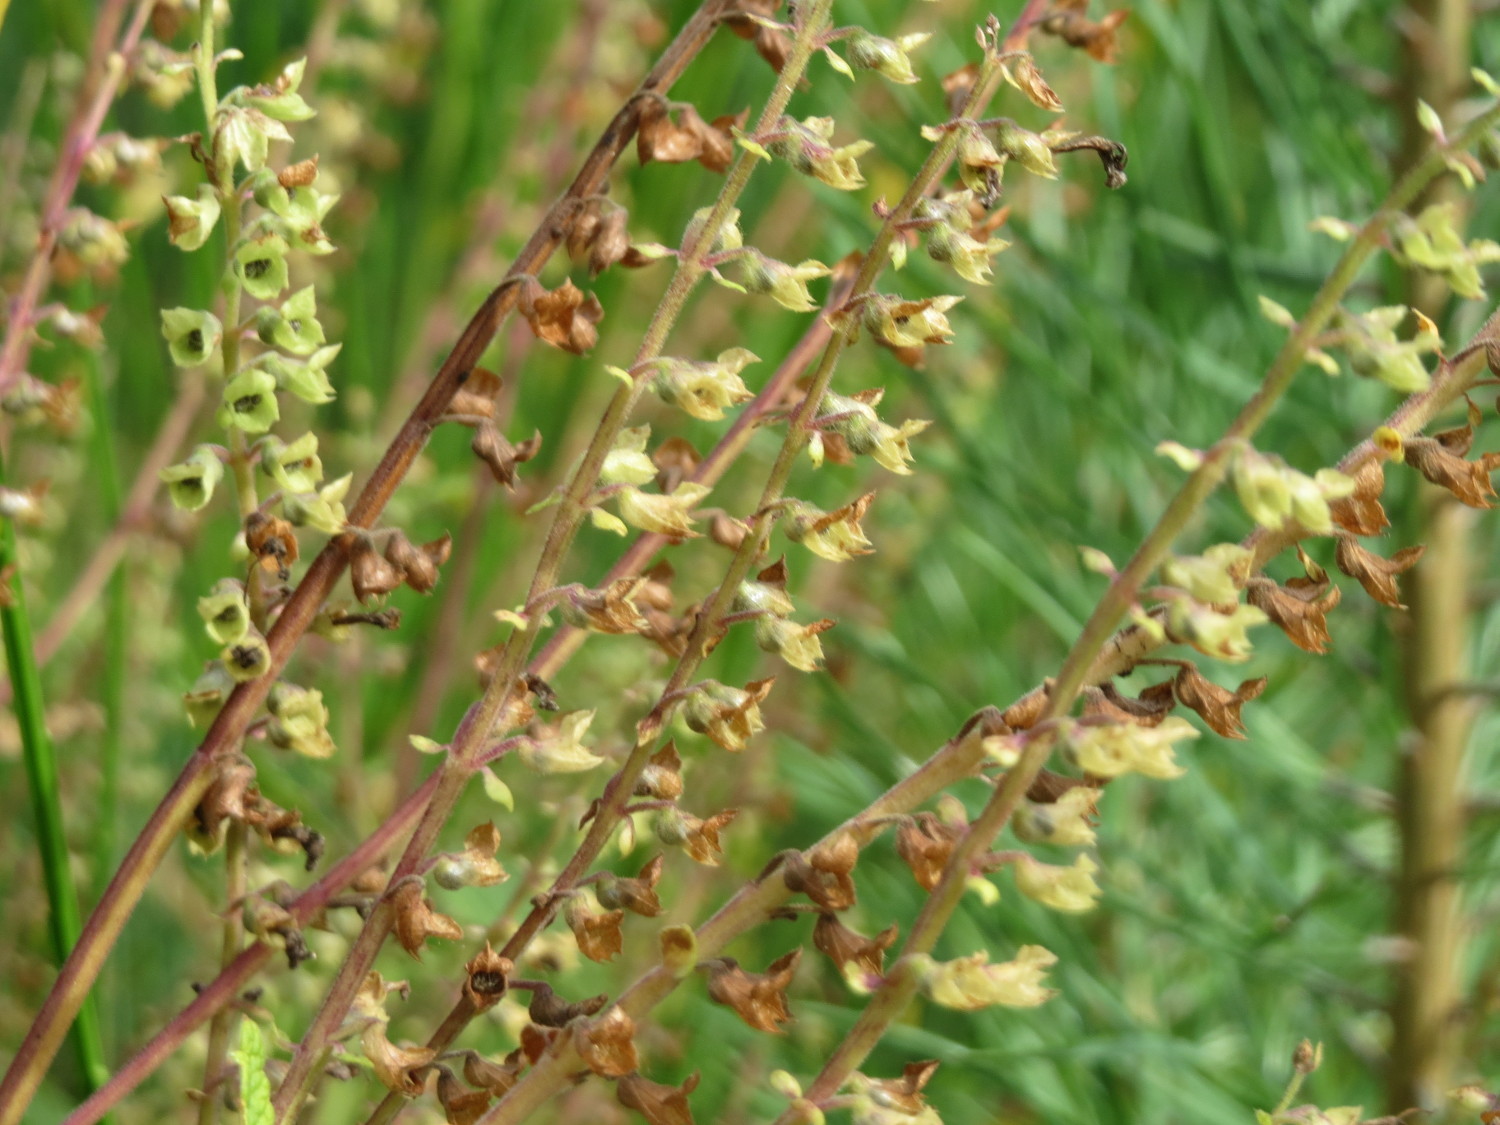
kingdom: Plantae
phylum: Tracheophyta
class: Magnoliopsida
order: Lamiales
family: Lamiaceae
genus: Teucrium
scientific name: Teucrium scorodonia
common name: Woodland germander
